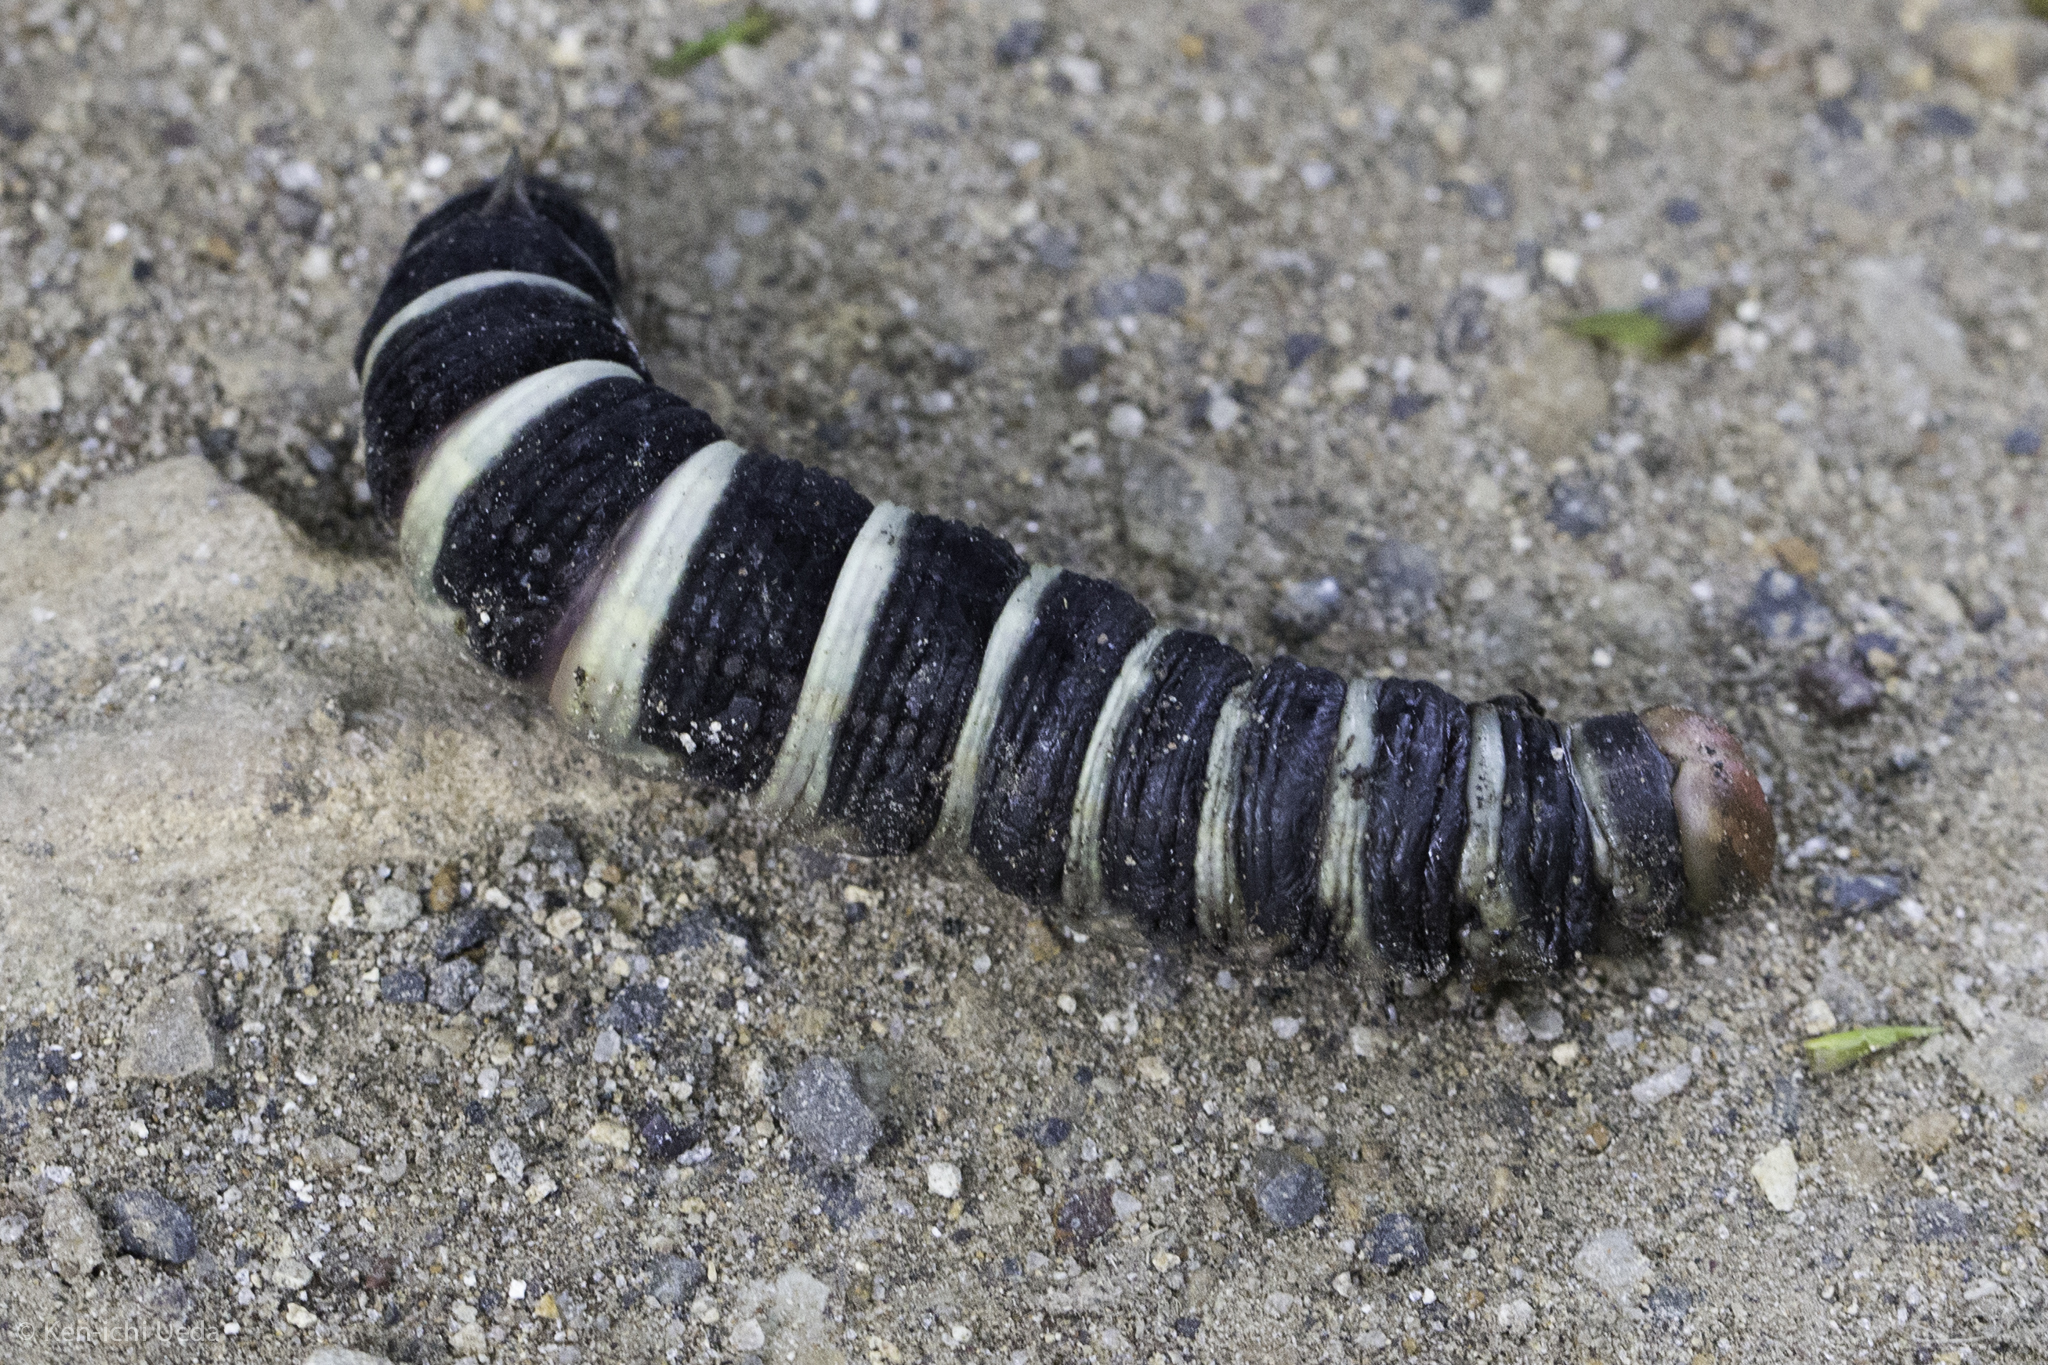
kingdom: Animalia
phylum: Arthropoda
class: Insecta
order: Lepidoptera
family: Sphingidae
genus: Pachylia
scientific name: Pachylia syces
